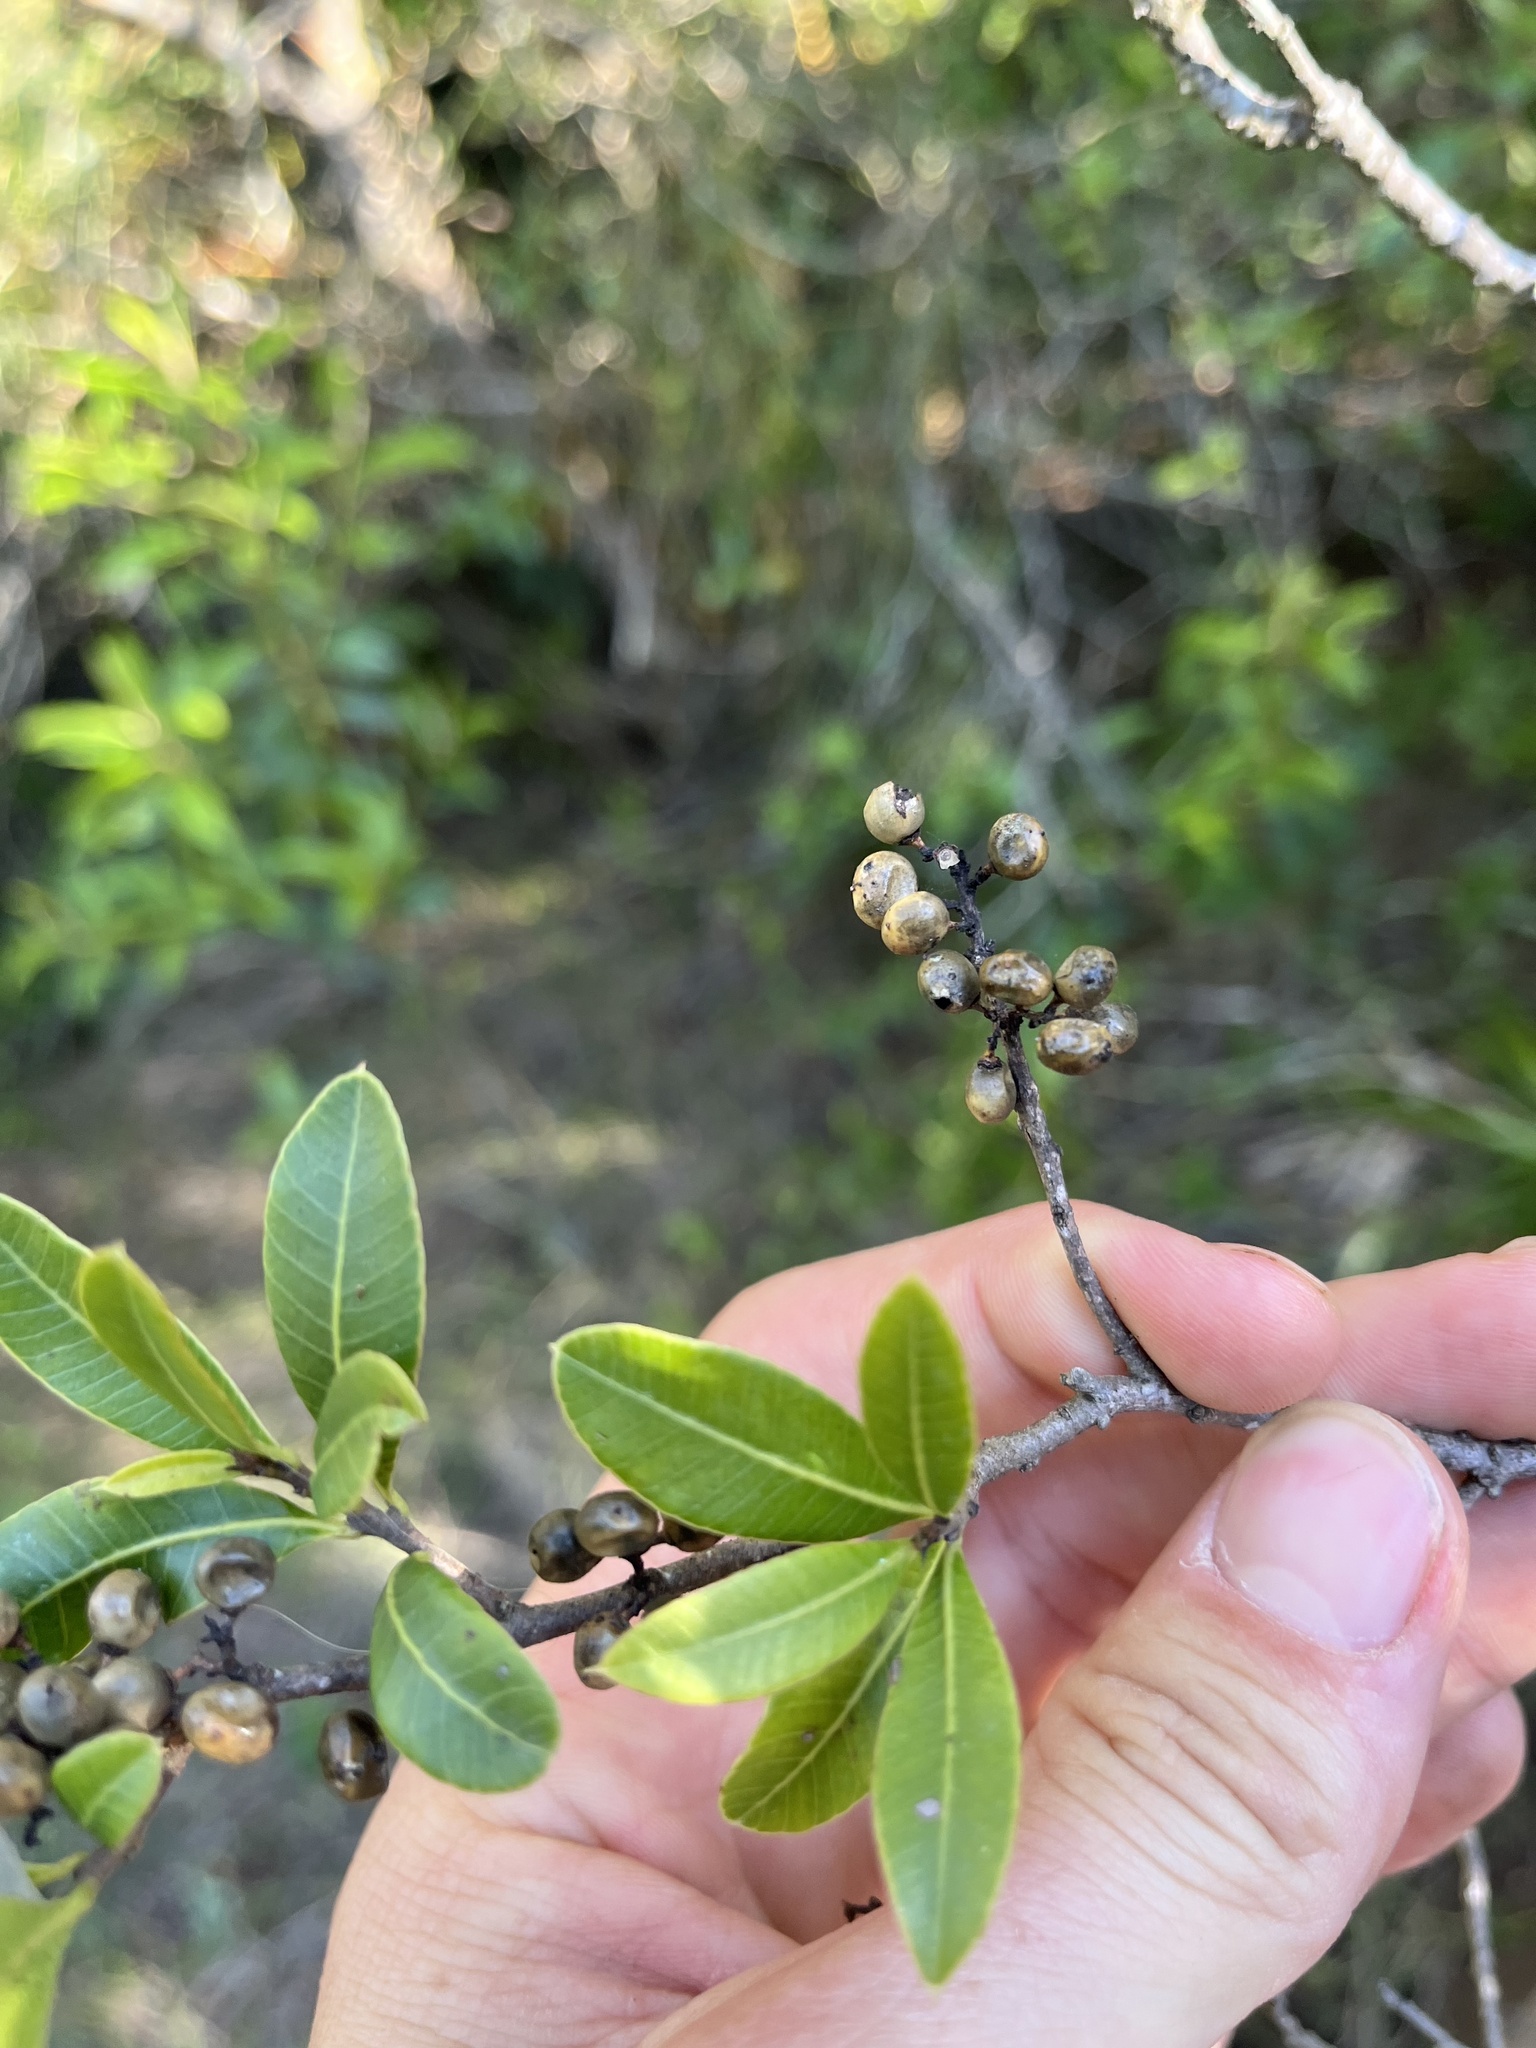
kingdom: Plantae
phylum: Tracheophyta
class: Magnoliopsida
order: Sapindales
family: Anacardiaceae
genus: Lithraea
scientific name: Lithraea brasiliensis
